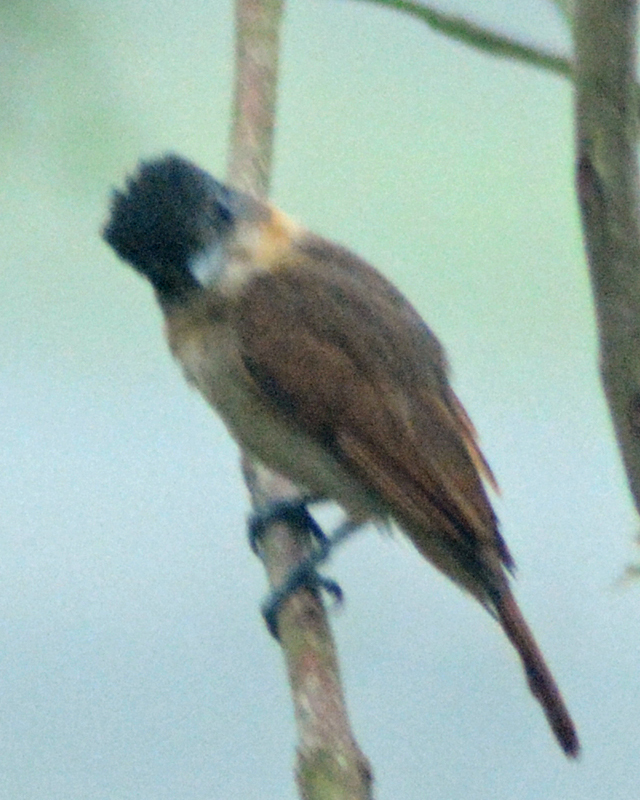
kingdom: Animalia
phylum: Chordata
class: Aves
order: Passeriformes
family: Cotingidae
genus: Pachyramphus
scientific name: Pachyramphus aglaiae
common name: Rose-throated becard
